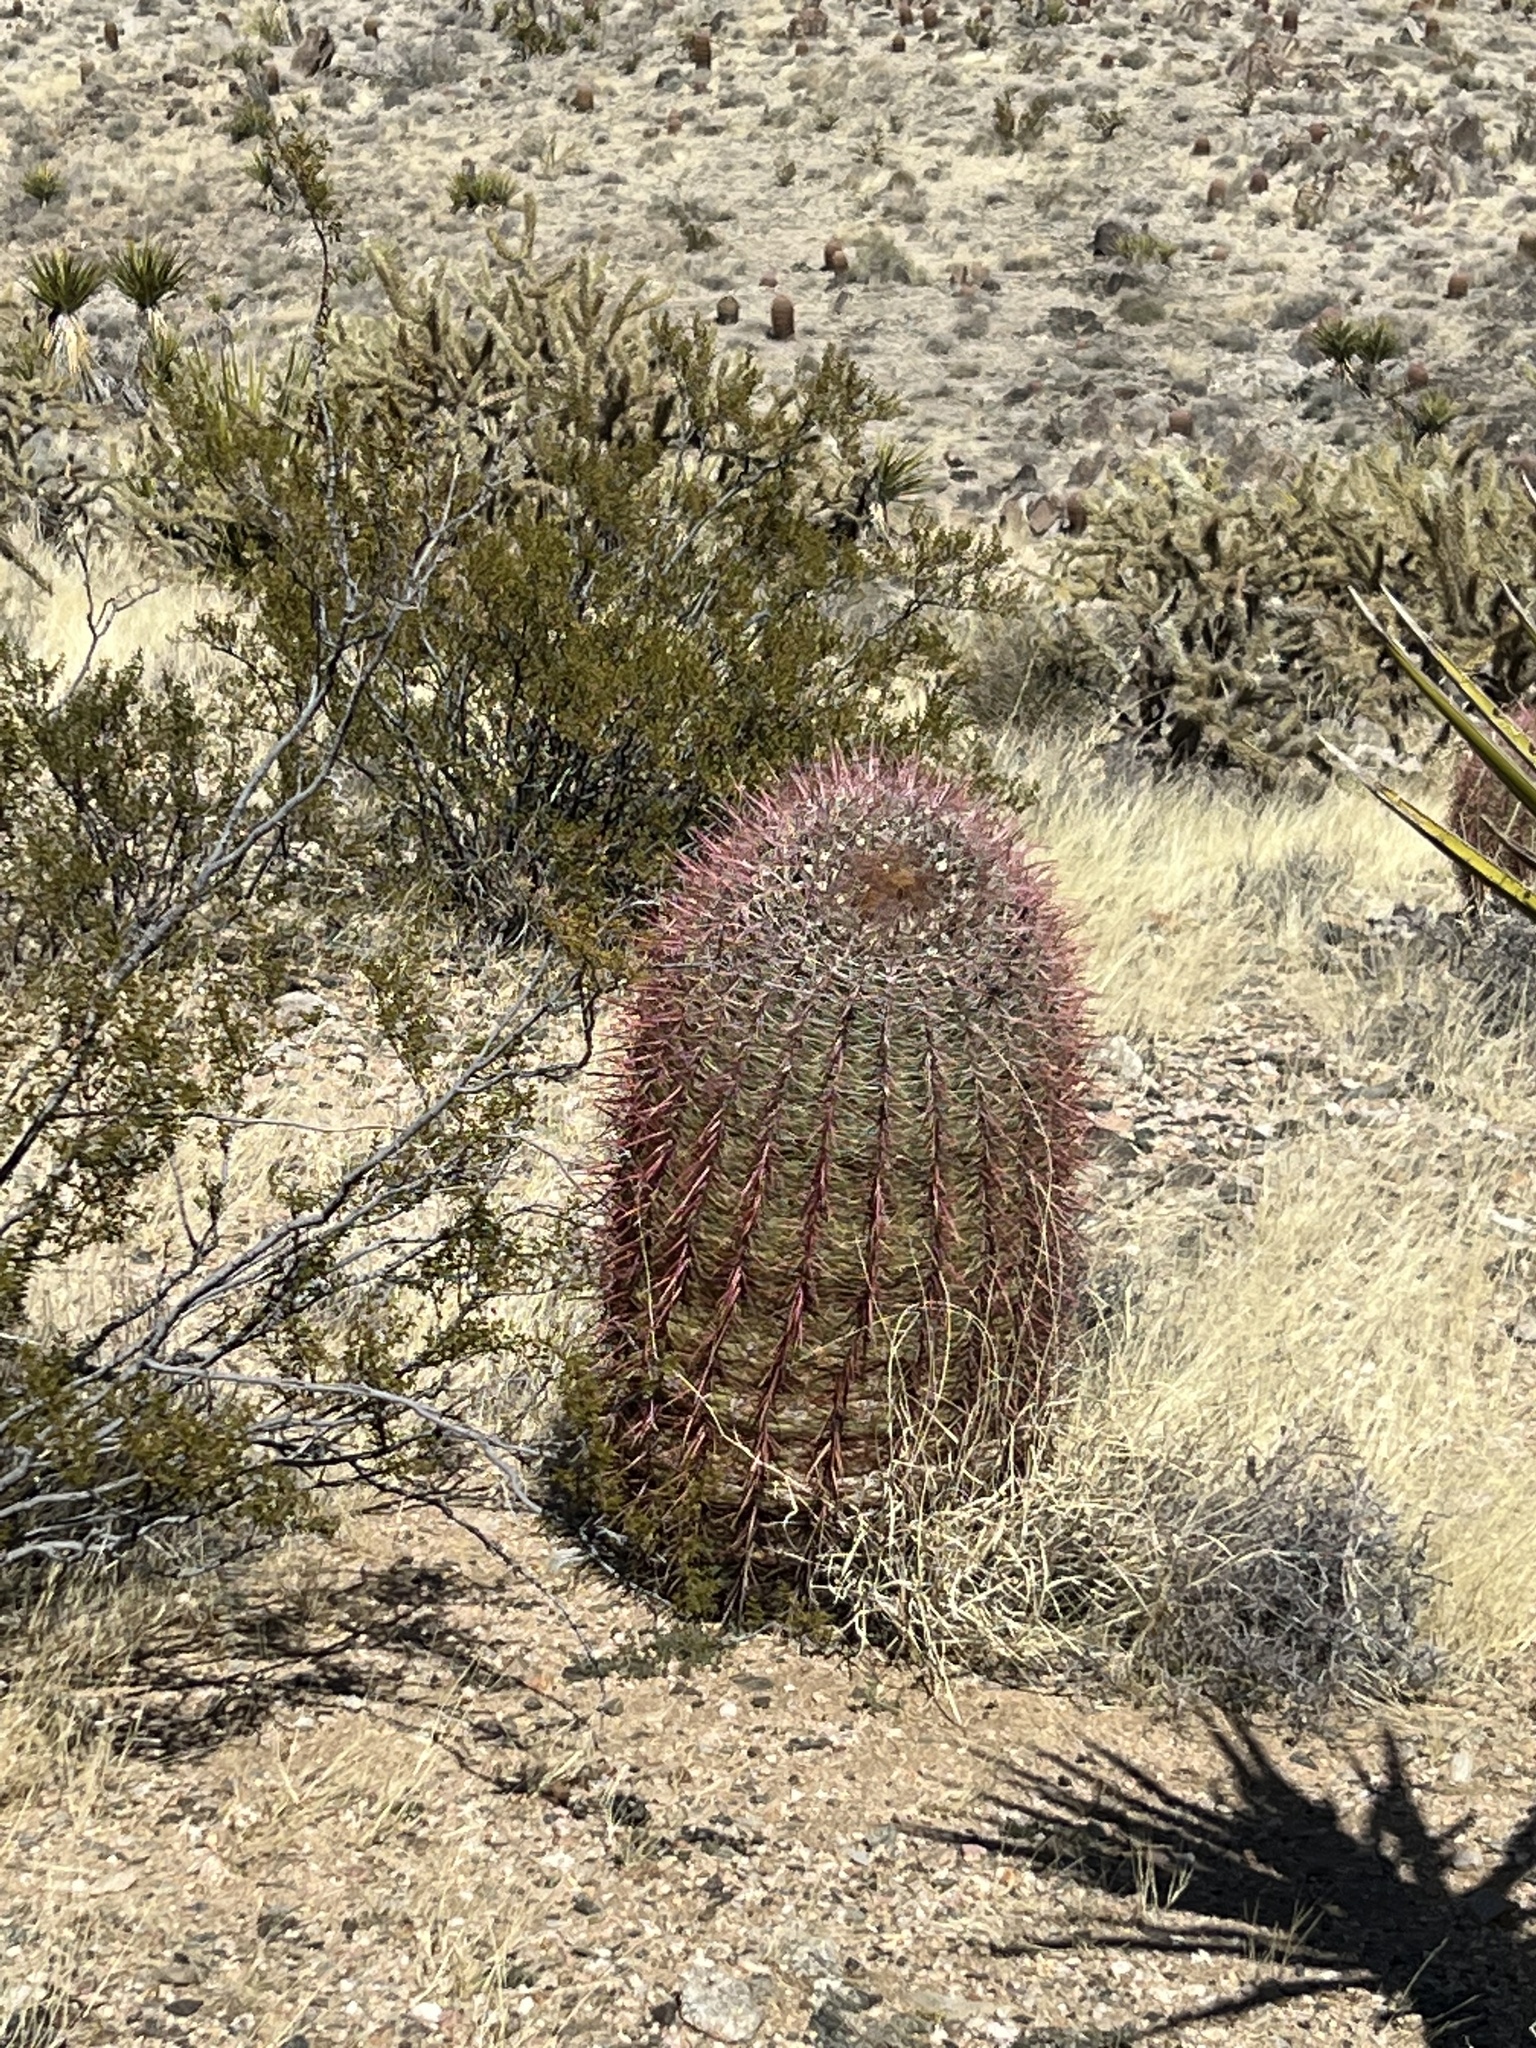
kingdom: Plantae
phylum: Tracheophyta
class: Magnoliopsida
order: Caryophyllales
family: Cactaceae
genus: Ferocactus
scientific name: Ferocactus cylindraceus
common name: California barrel cactus
